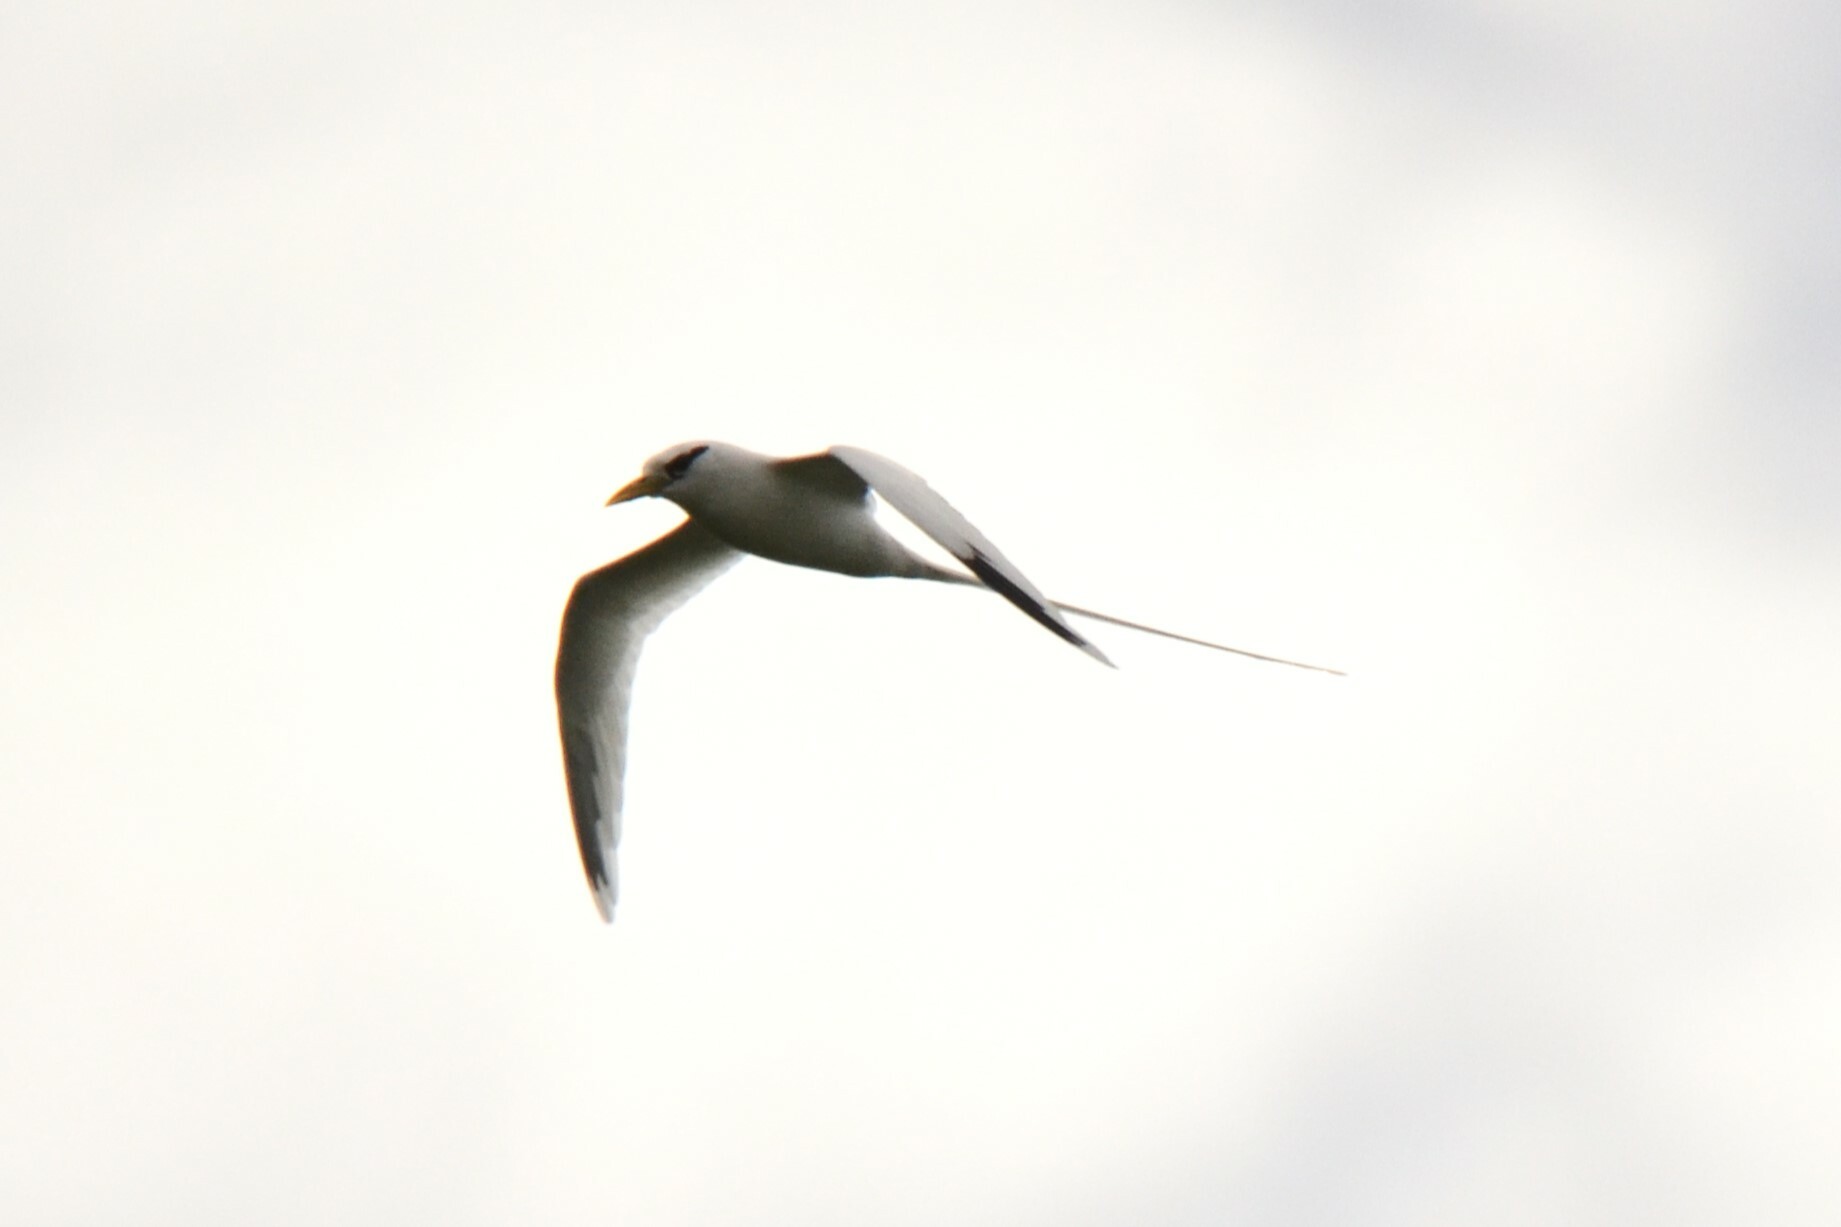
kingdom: Animalia
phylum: Chordata
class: Aves
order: Phaethontiformes
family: Phaethontidae
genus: Phaethon
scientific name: Phaethon lepturus
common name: White-tailed tropicbird
